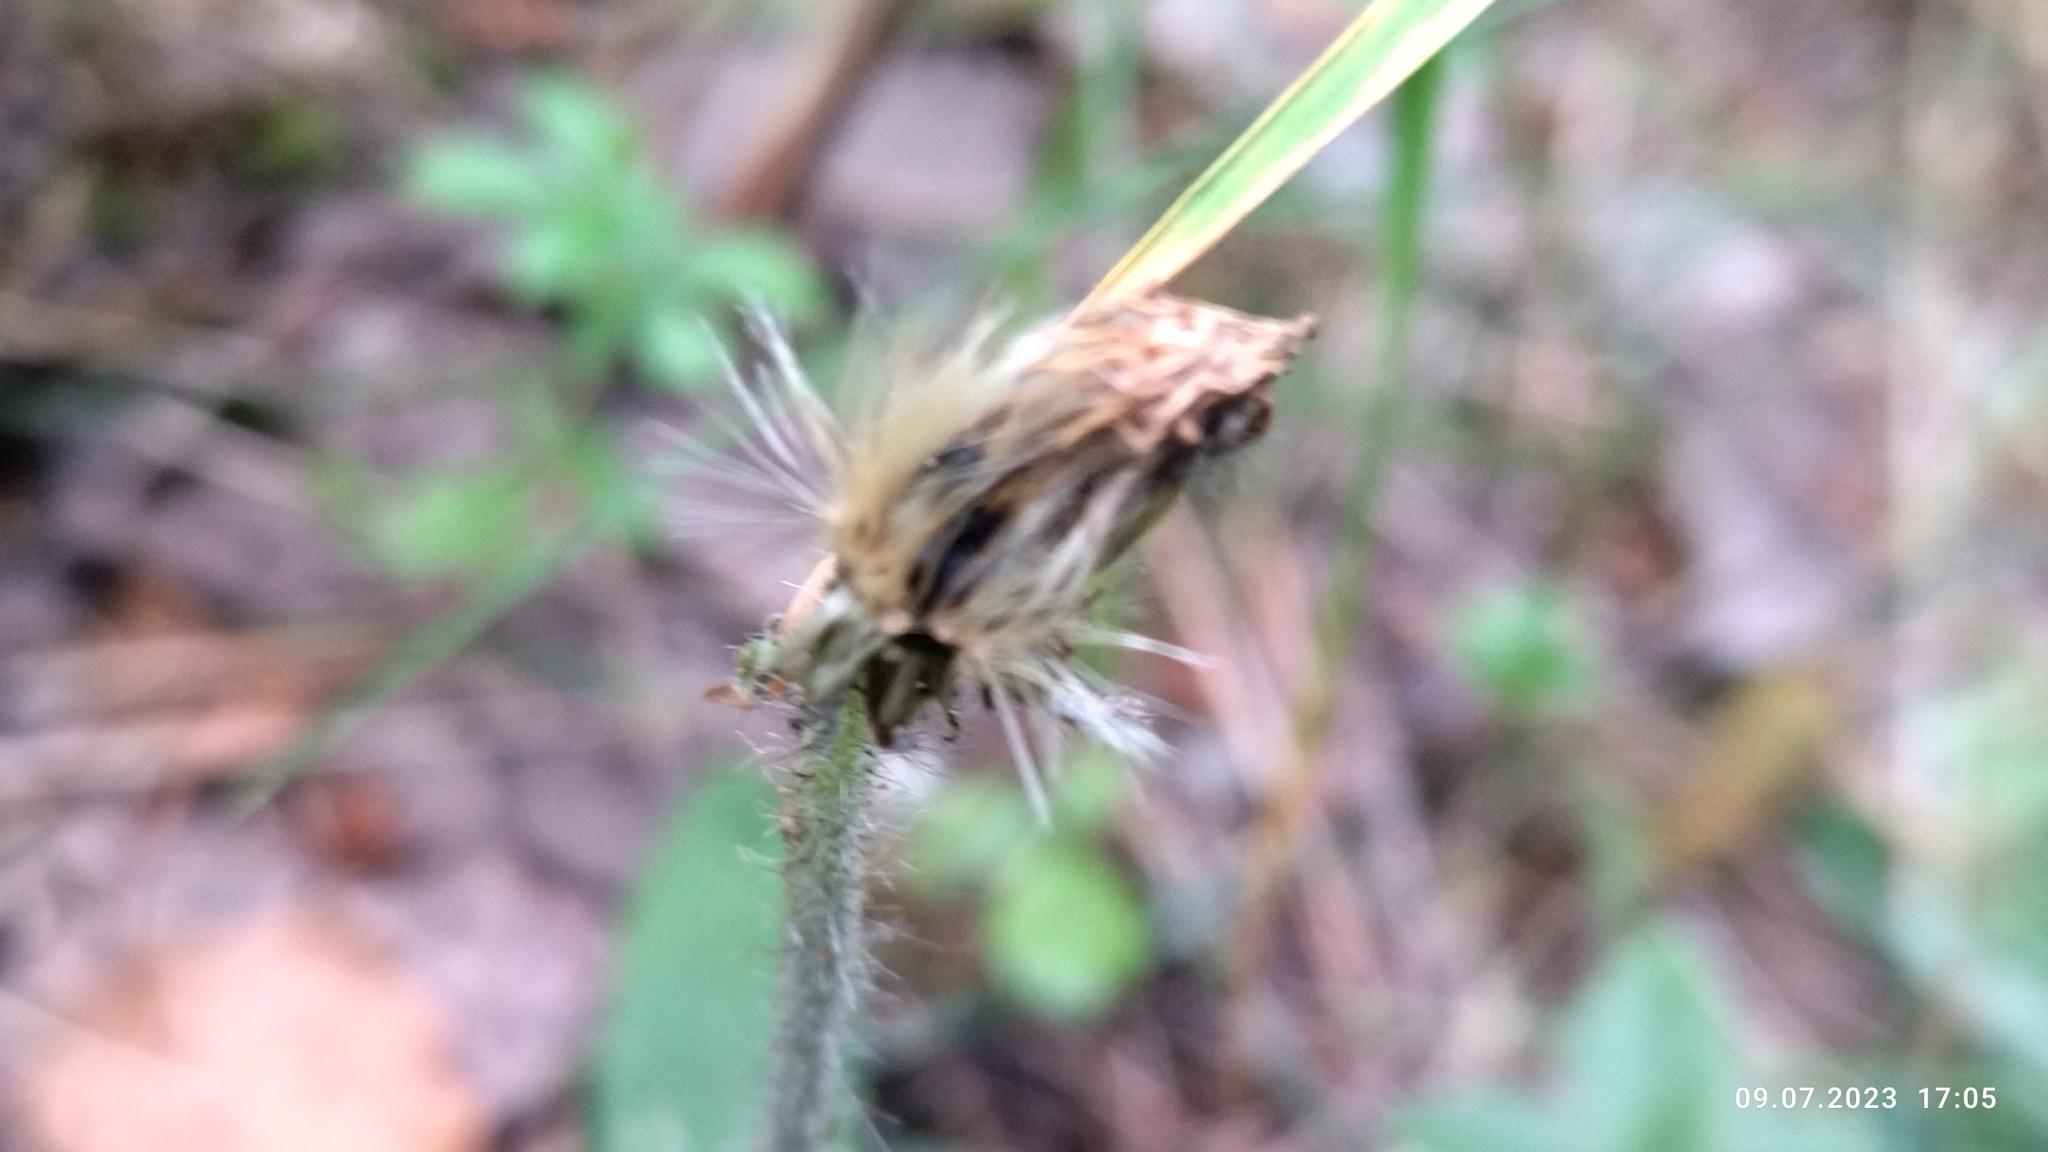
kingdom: Plantae
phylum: Tracheophyta
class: Magnoliopsida
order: Asterales
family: Asteraceae
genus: Pilosella
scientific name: Pilosella officinarum
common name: Mouse-ear hawkweed
